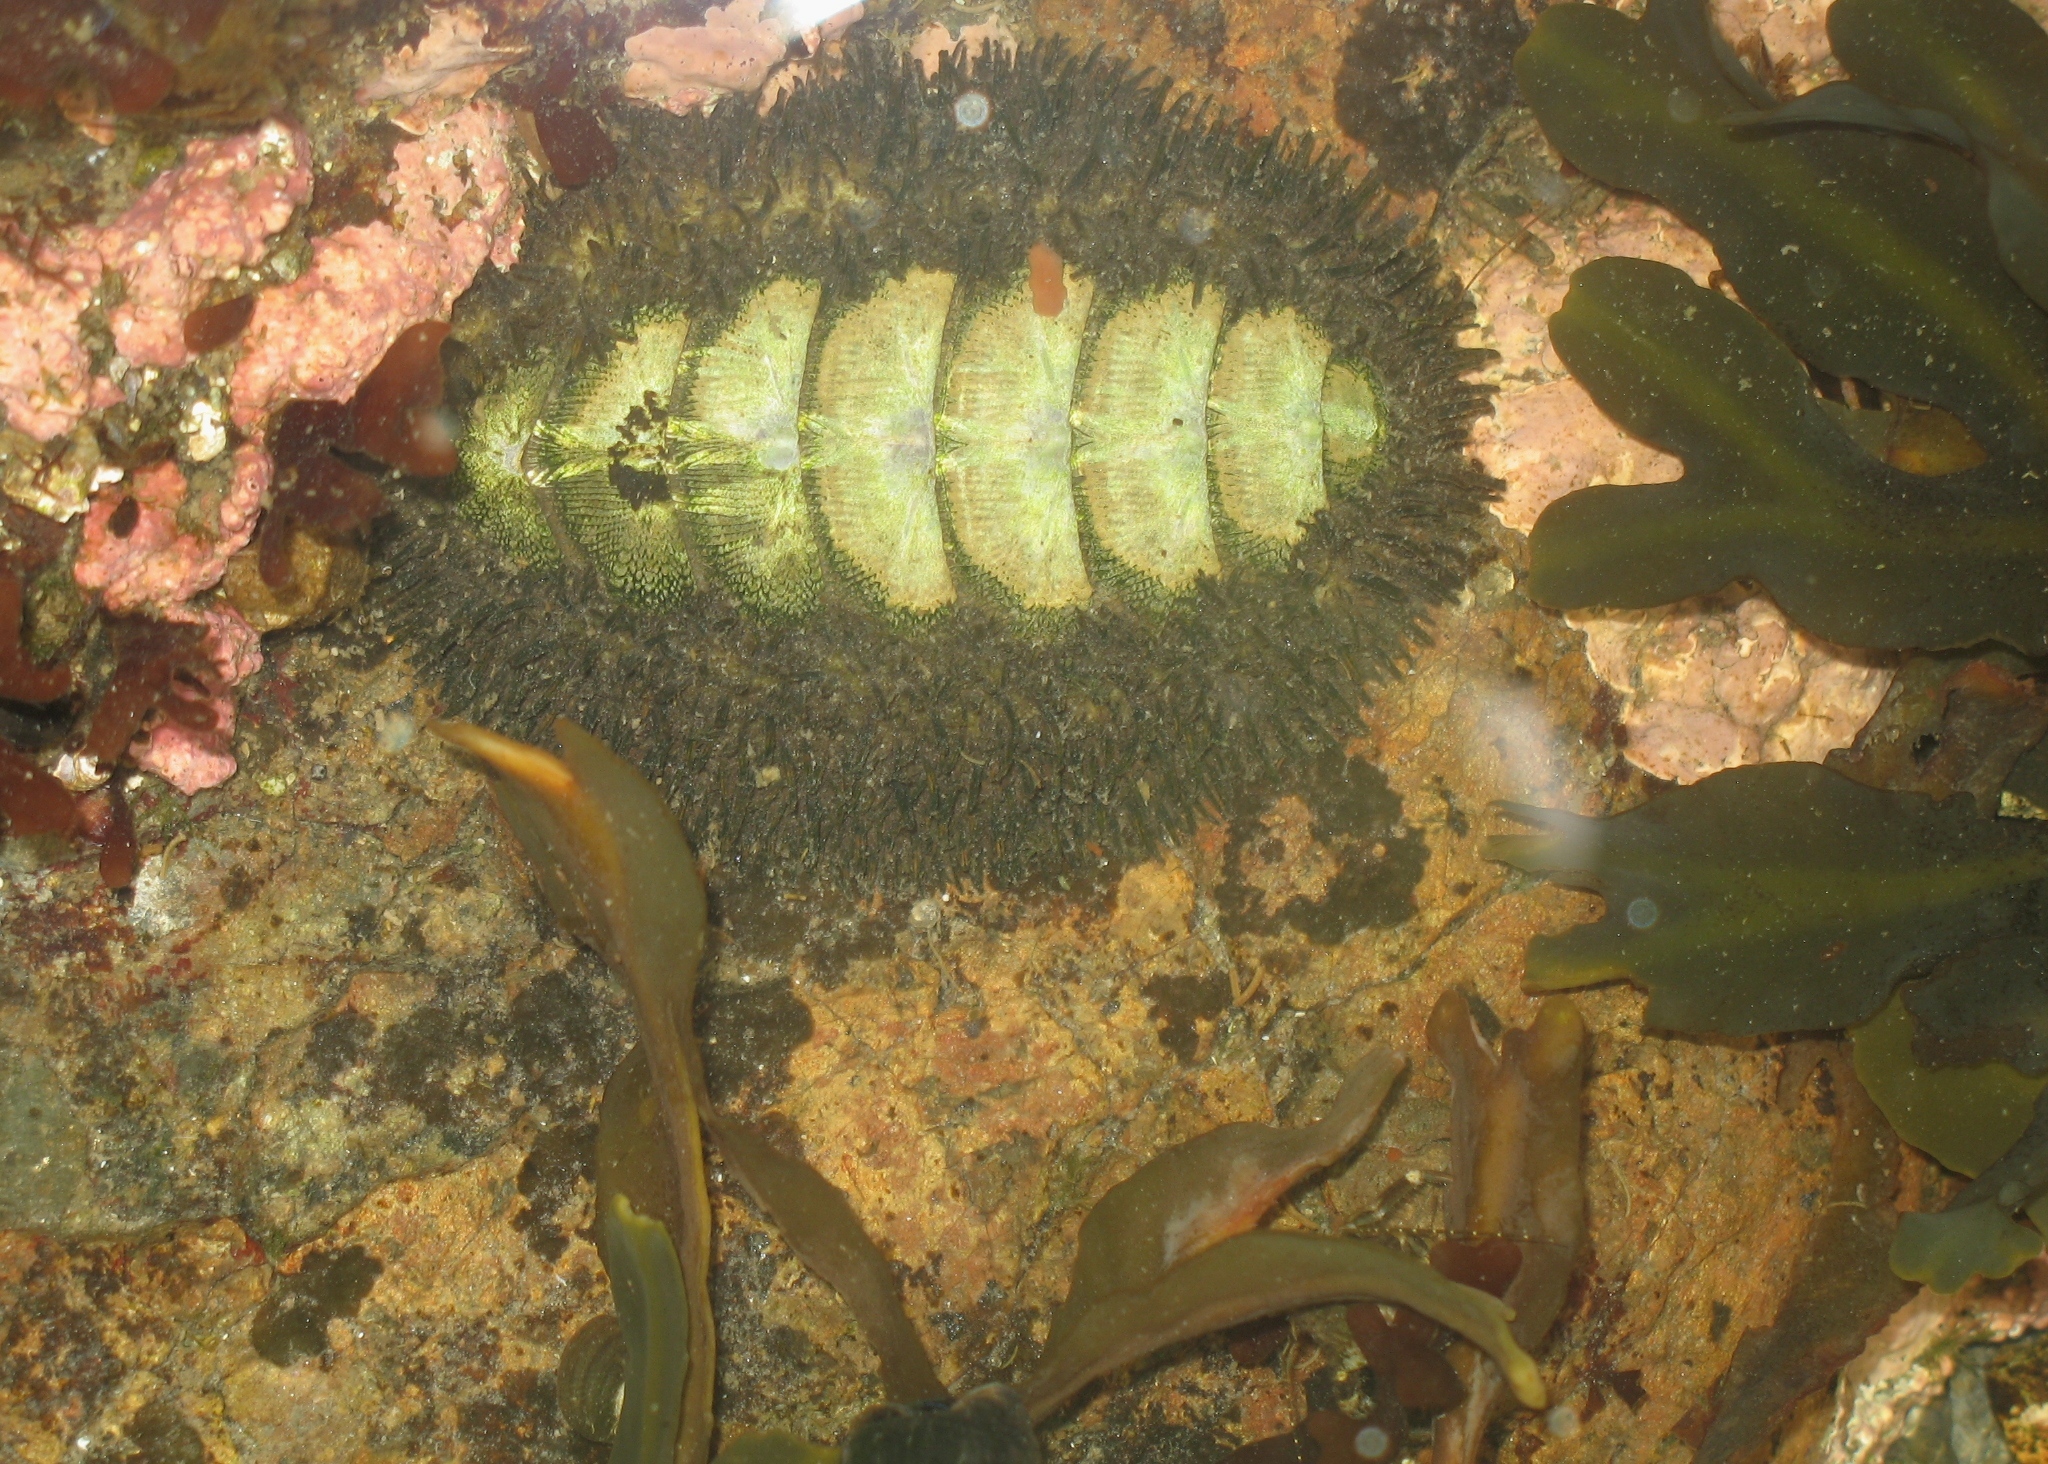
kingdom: Animalia
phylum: Mollusca
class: Polyplacophora
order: Chitonida
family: Mopaliidae
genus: Mopalia
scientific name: Mopalia muscosa
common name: Mossy chiton
